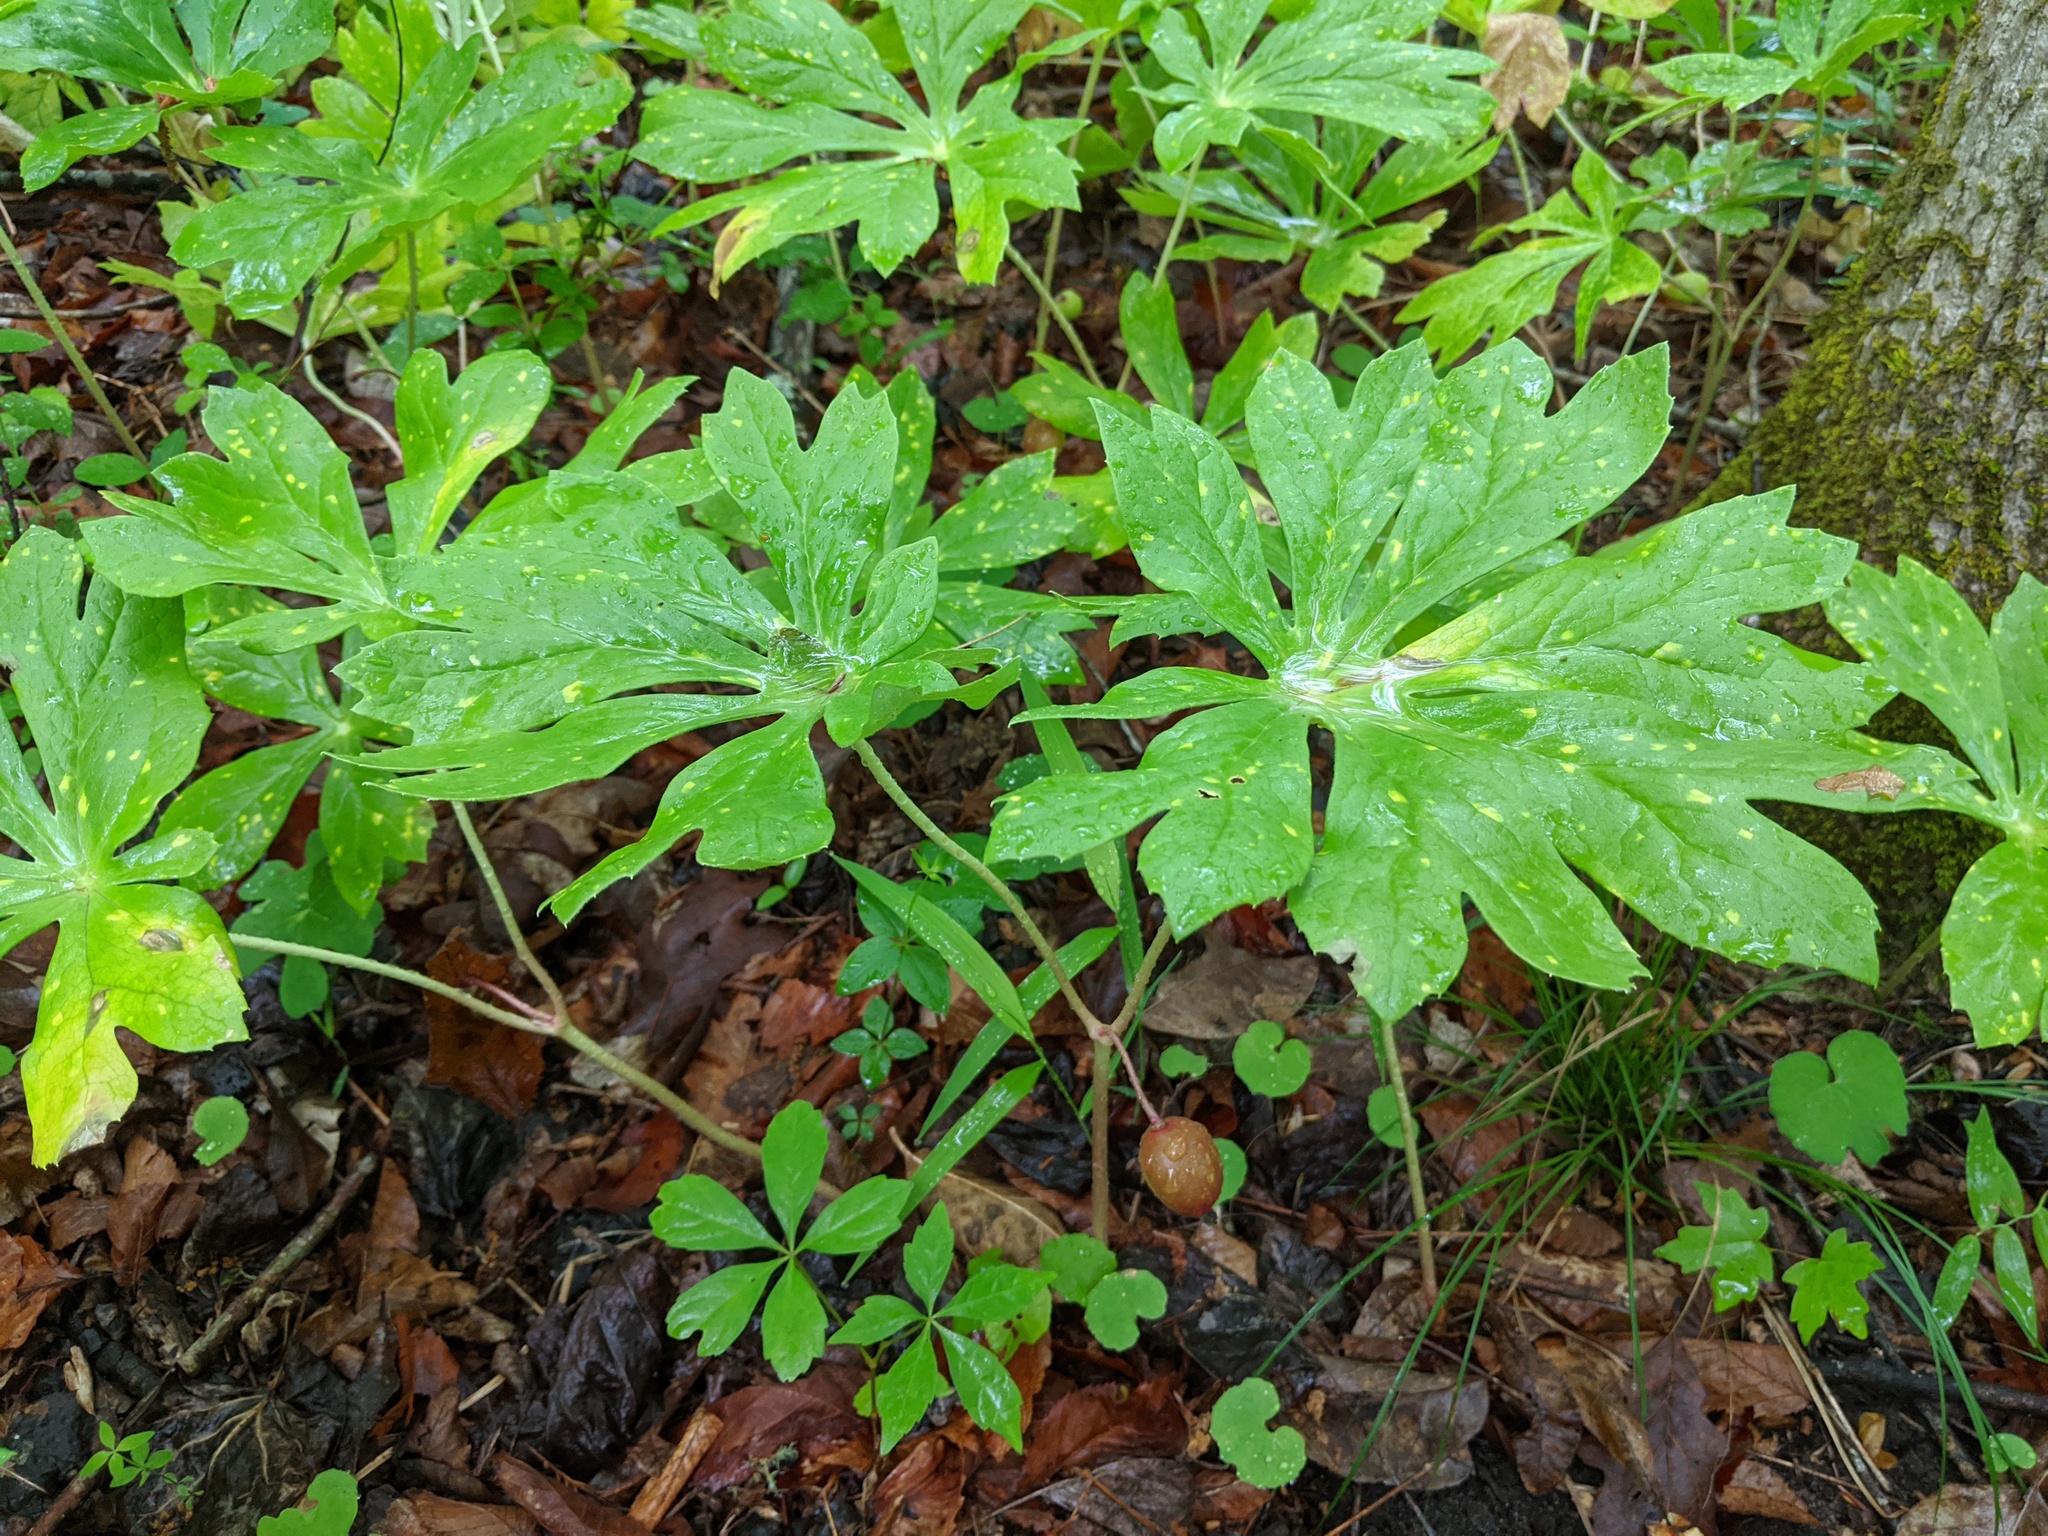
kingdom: Plantae
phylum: Tracheophyta
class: Magnoliopsida
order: Ranunculales
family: Berberidaceae
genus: Podophyllum
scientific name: Podophyllum peltatum
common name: Wild mandrake
